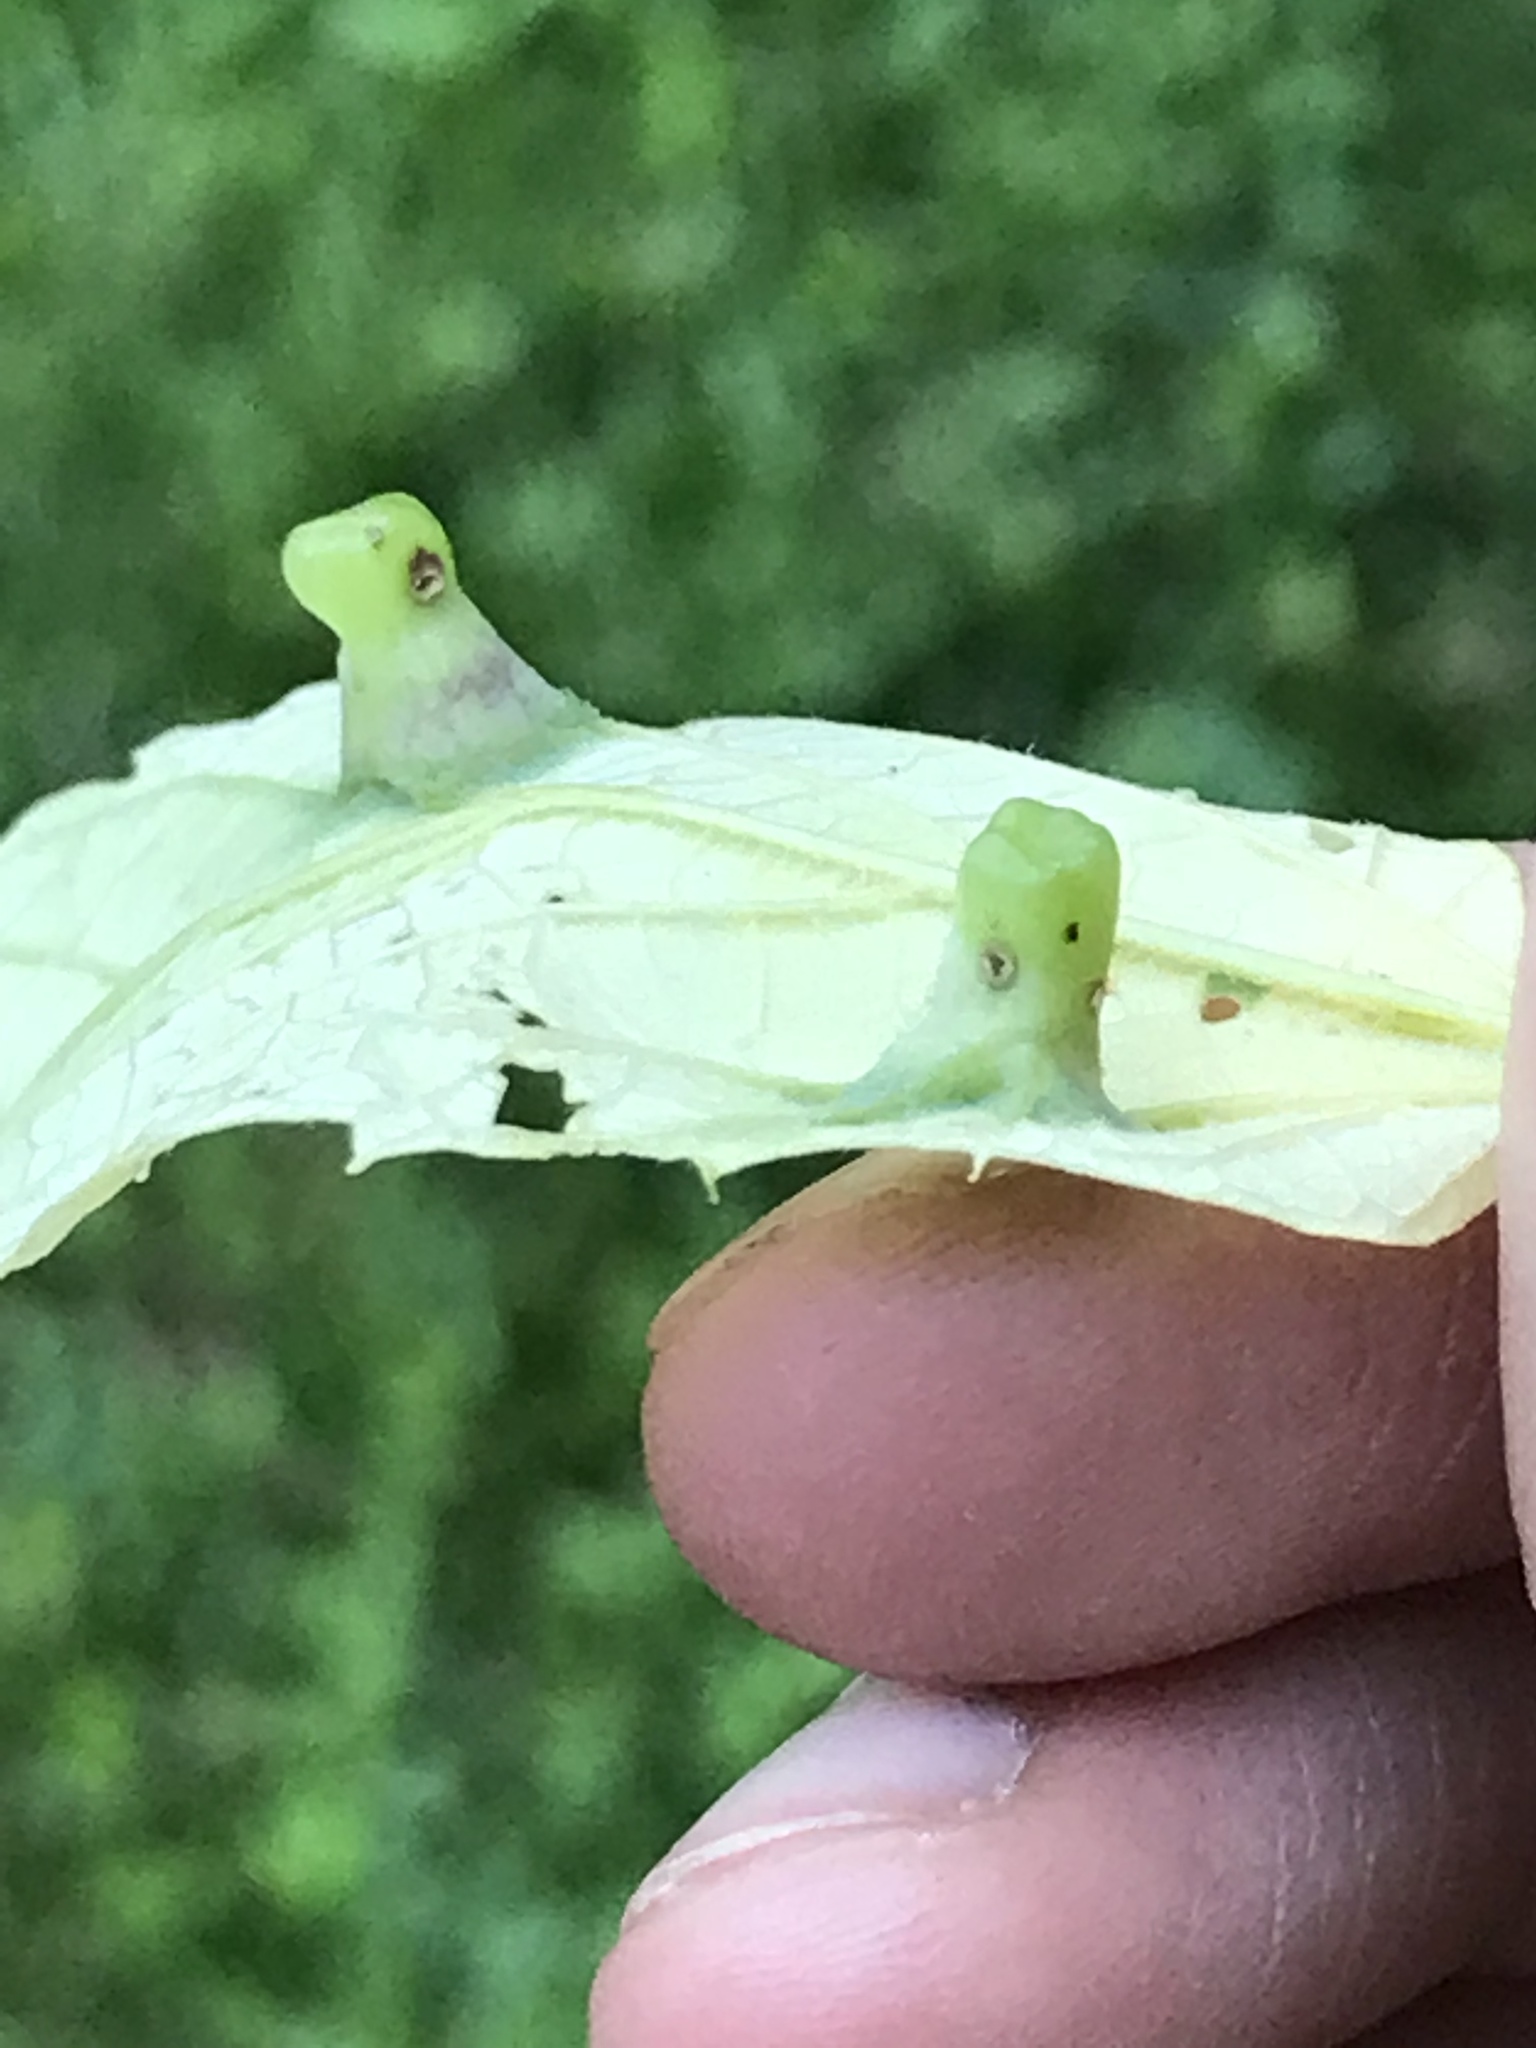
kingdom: Animalia
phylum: Arthropoda
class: Insecta
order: Hemiptera
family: Aphalaridae
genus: Pachypsylla
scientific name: Pachypsylla celtidismamma
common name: Hackberry nipplegall psyllid
